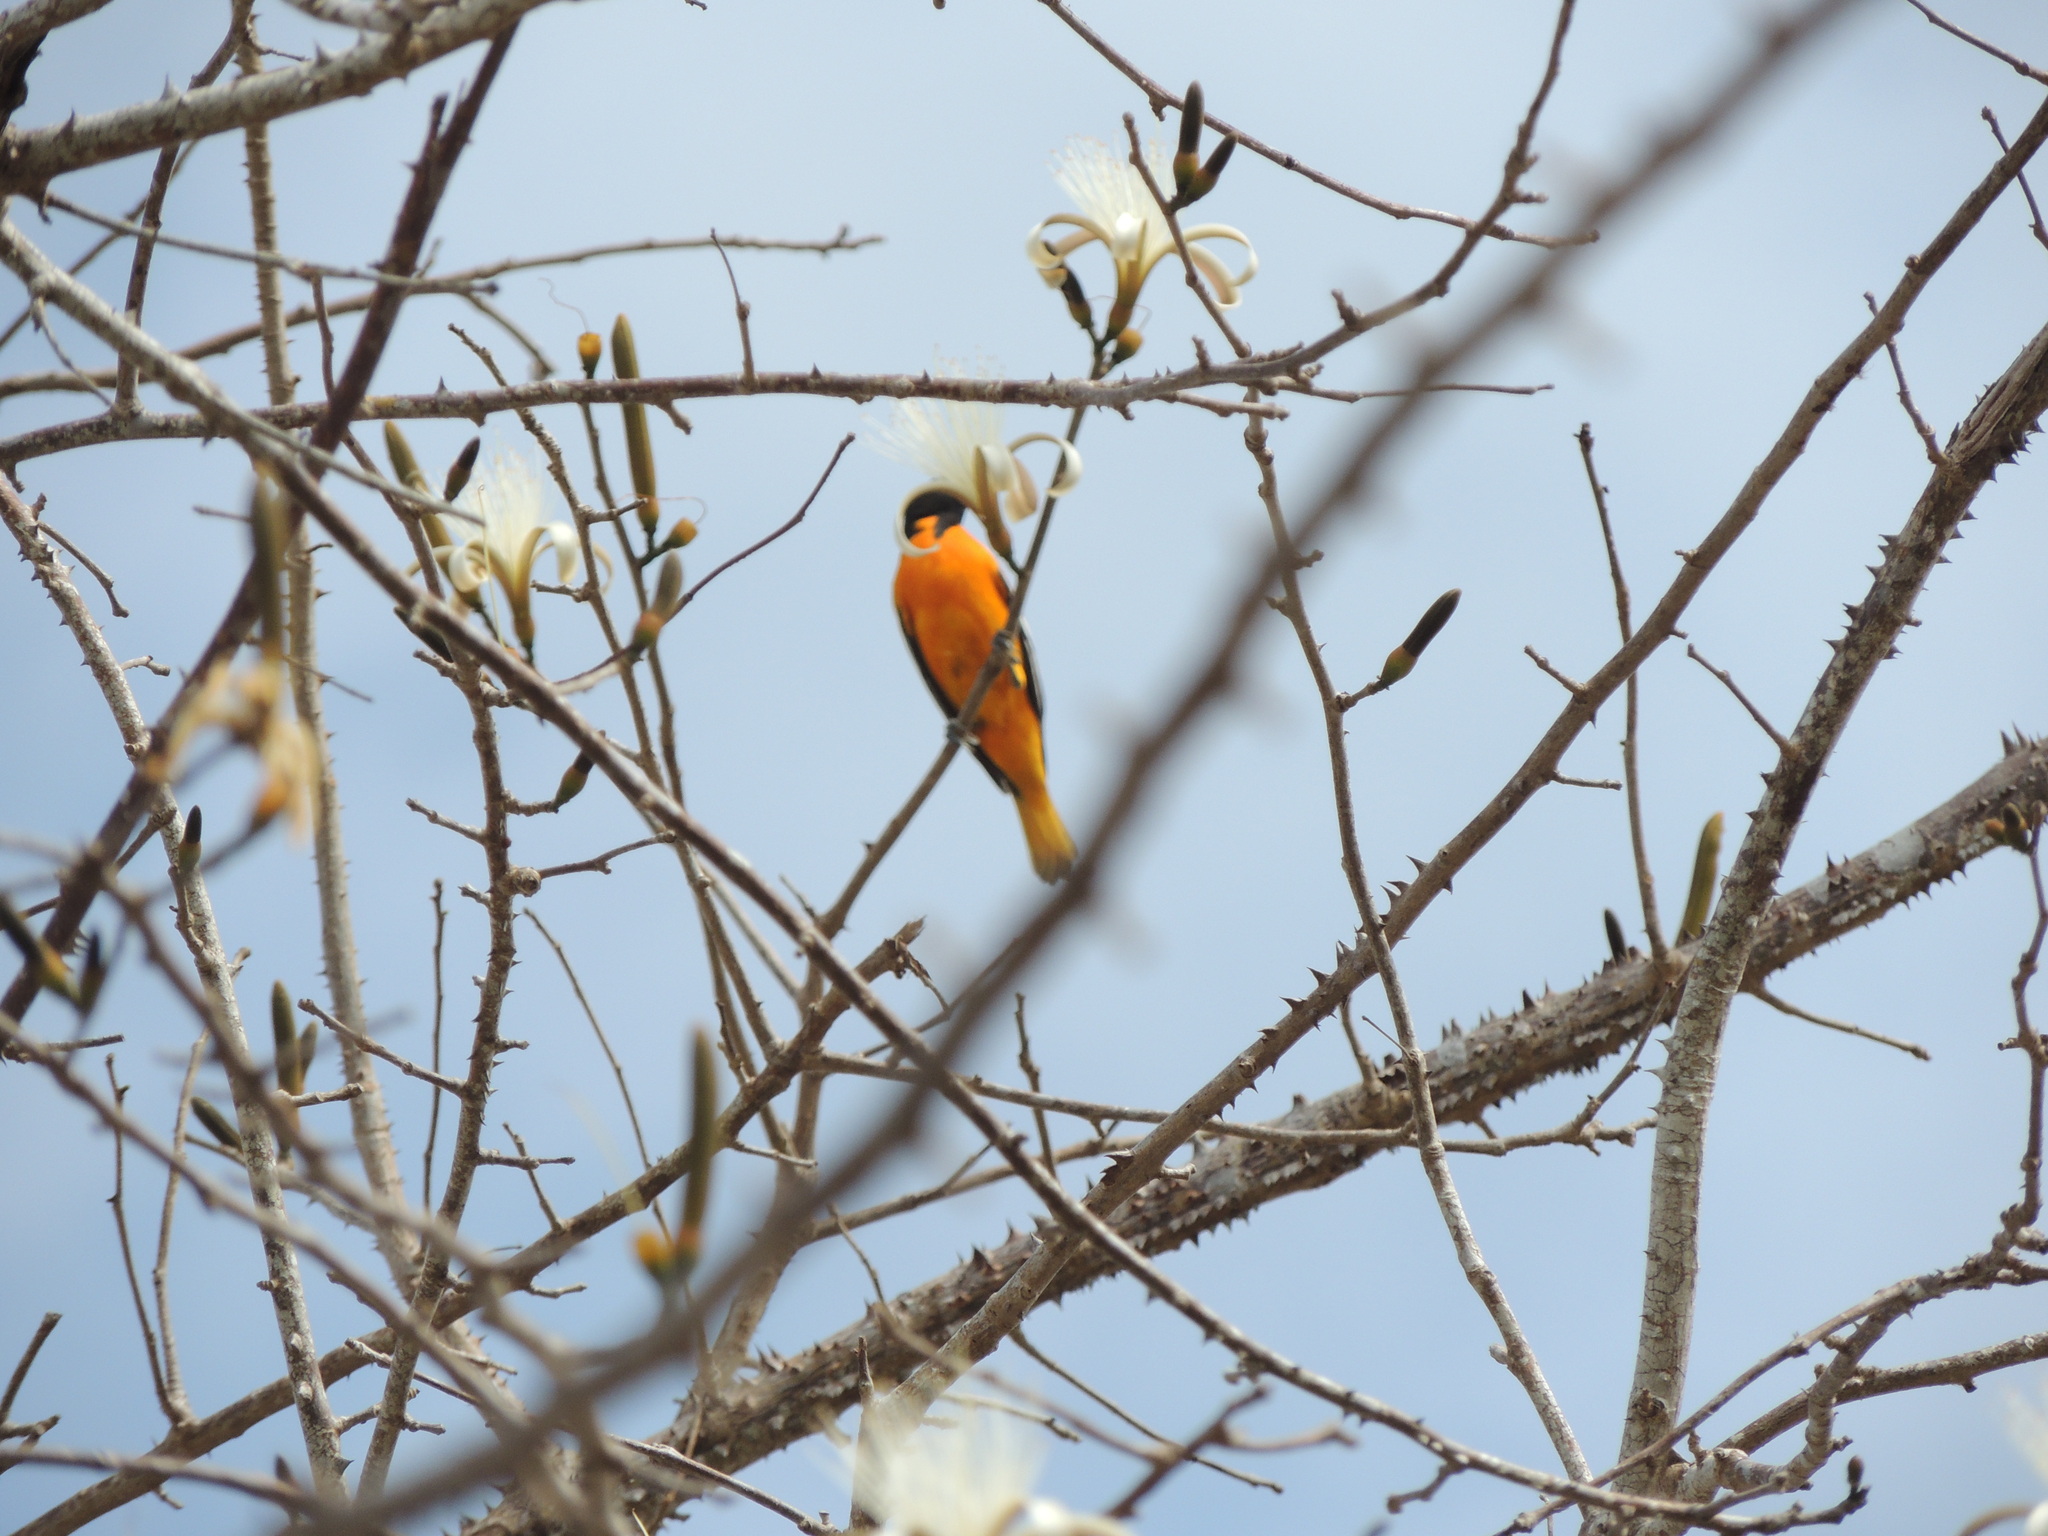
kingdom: Animalia
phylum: Chordata
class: Aves
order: Passeriformes
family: Icteridae
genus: Icterus
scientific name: Icterus galbula
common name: Baltimore oriole
